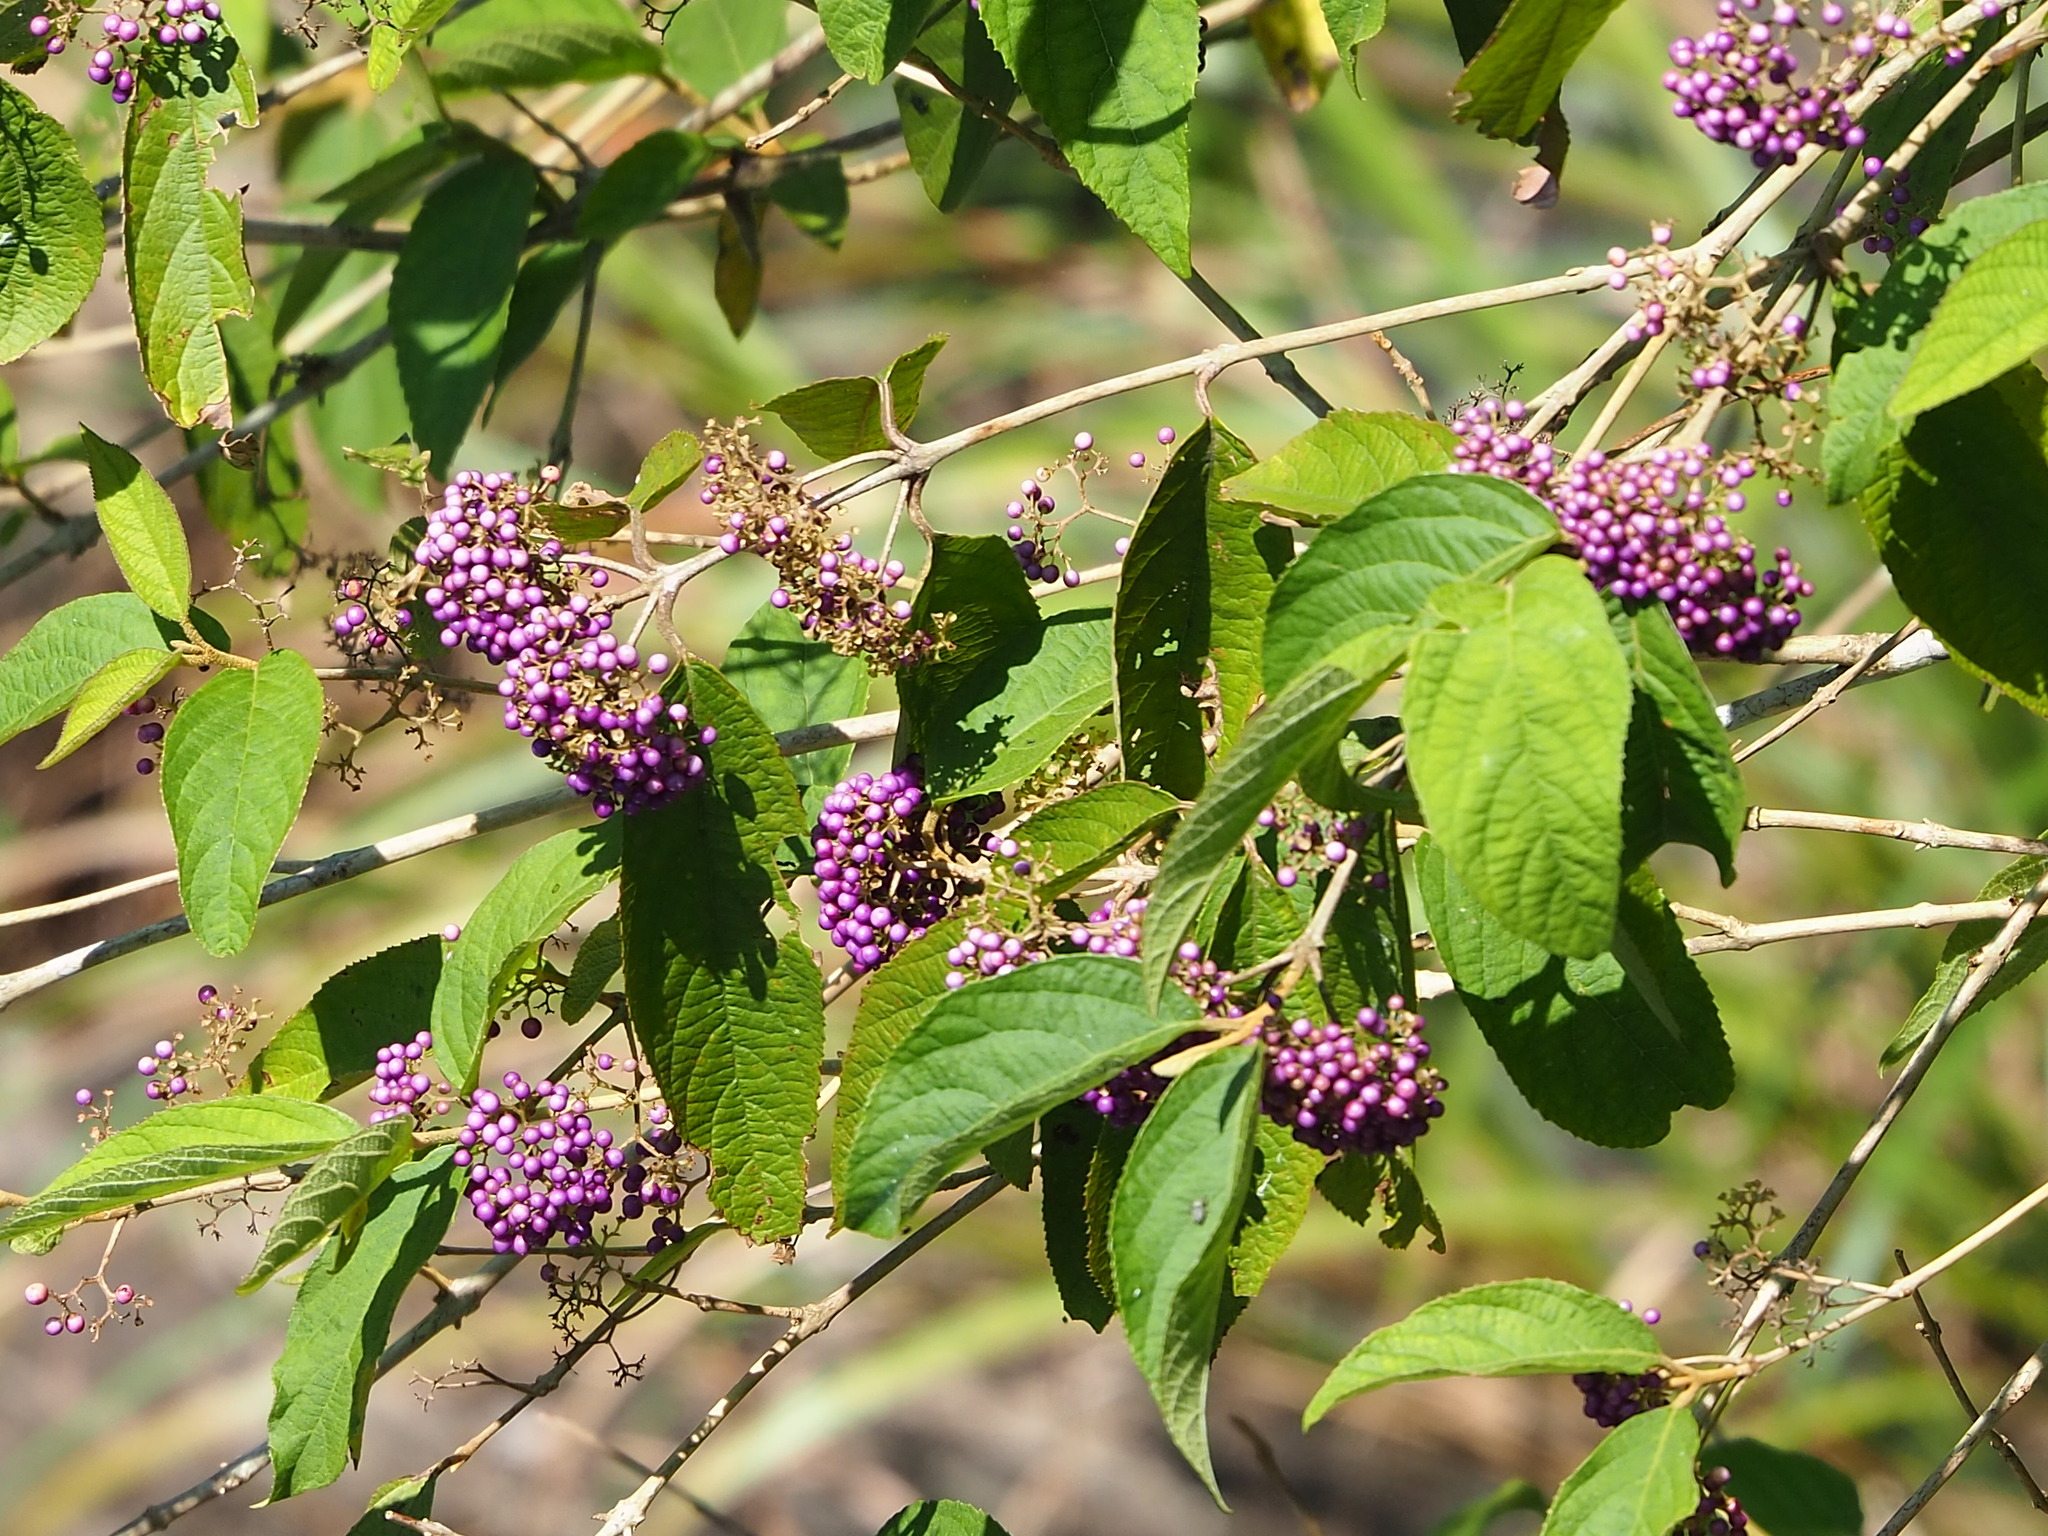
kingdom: Plantae
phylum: Tracheophyta
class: Magnoliopsida
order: Lamiales
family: Lamiaceae
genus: Callicarpa
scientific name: Callicarpa pedunculata
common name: Velvetleaf
